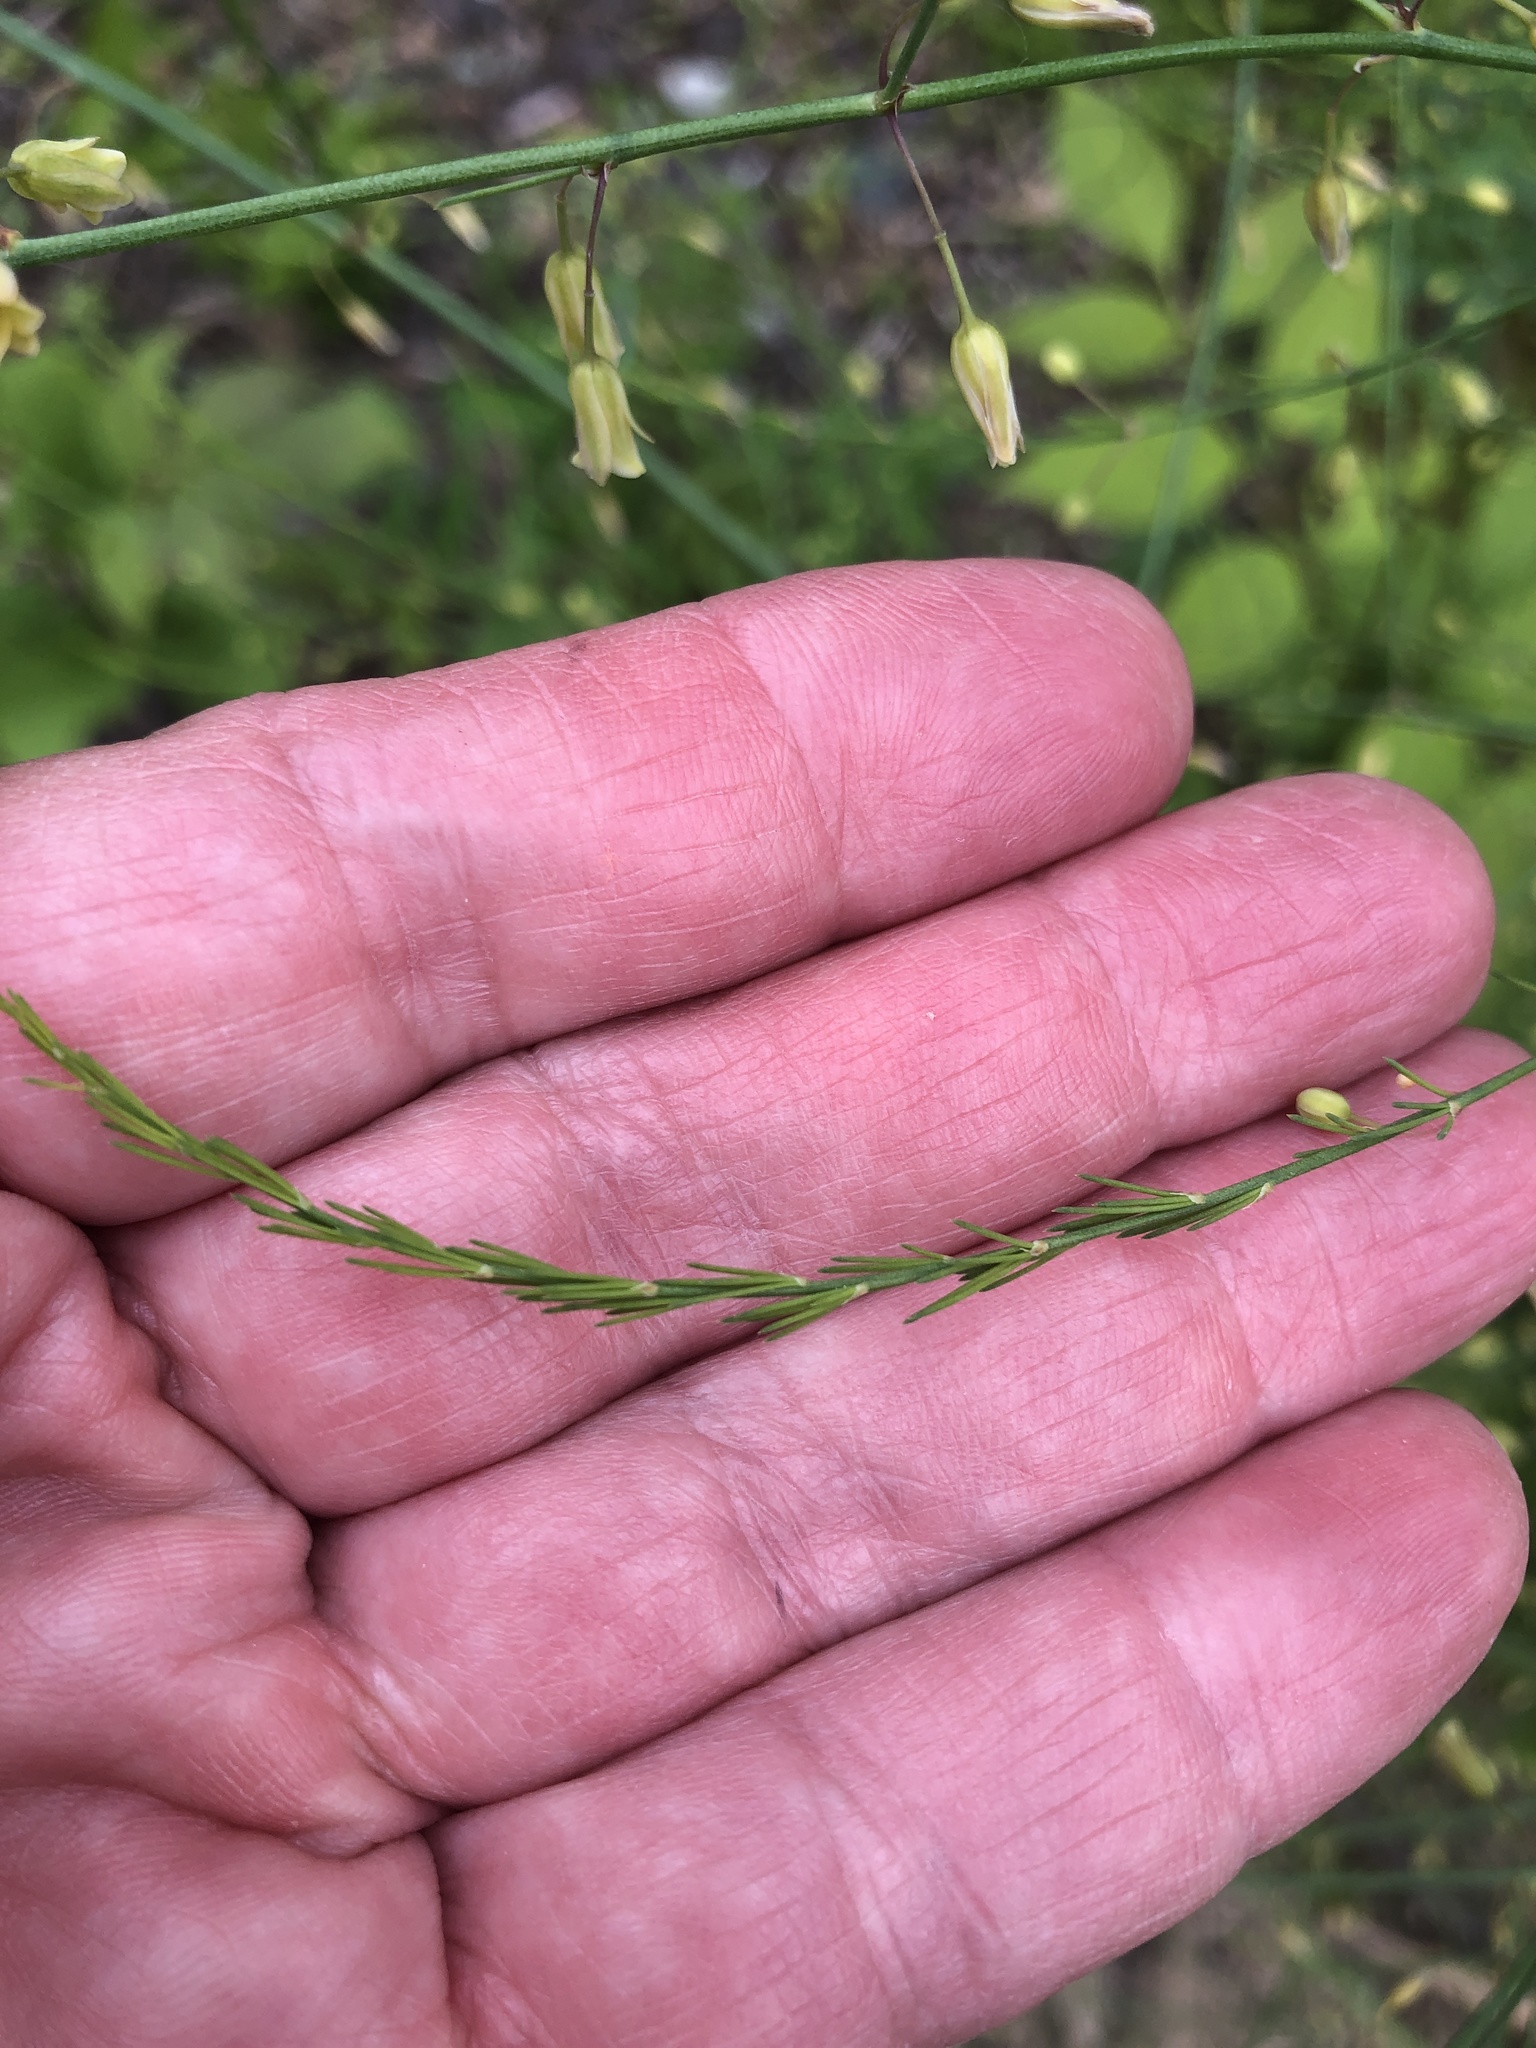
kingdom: Plantae
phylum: Tracheophyta
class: Liliopsida
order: Asparagales
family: Asparagaceae
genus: Asparagus
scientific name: Asparagus officinalis
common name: Garden asparagus
